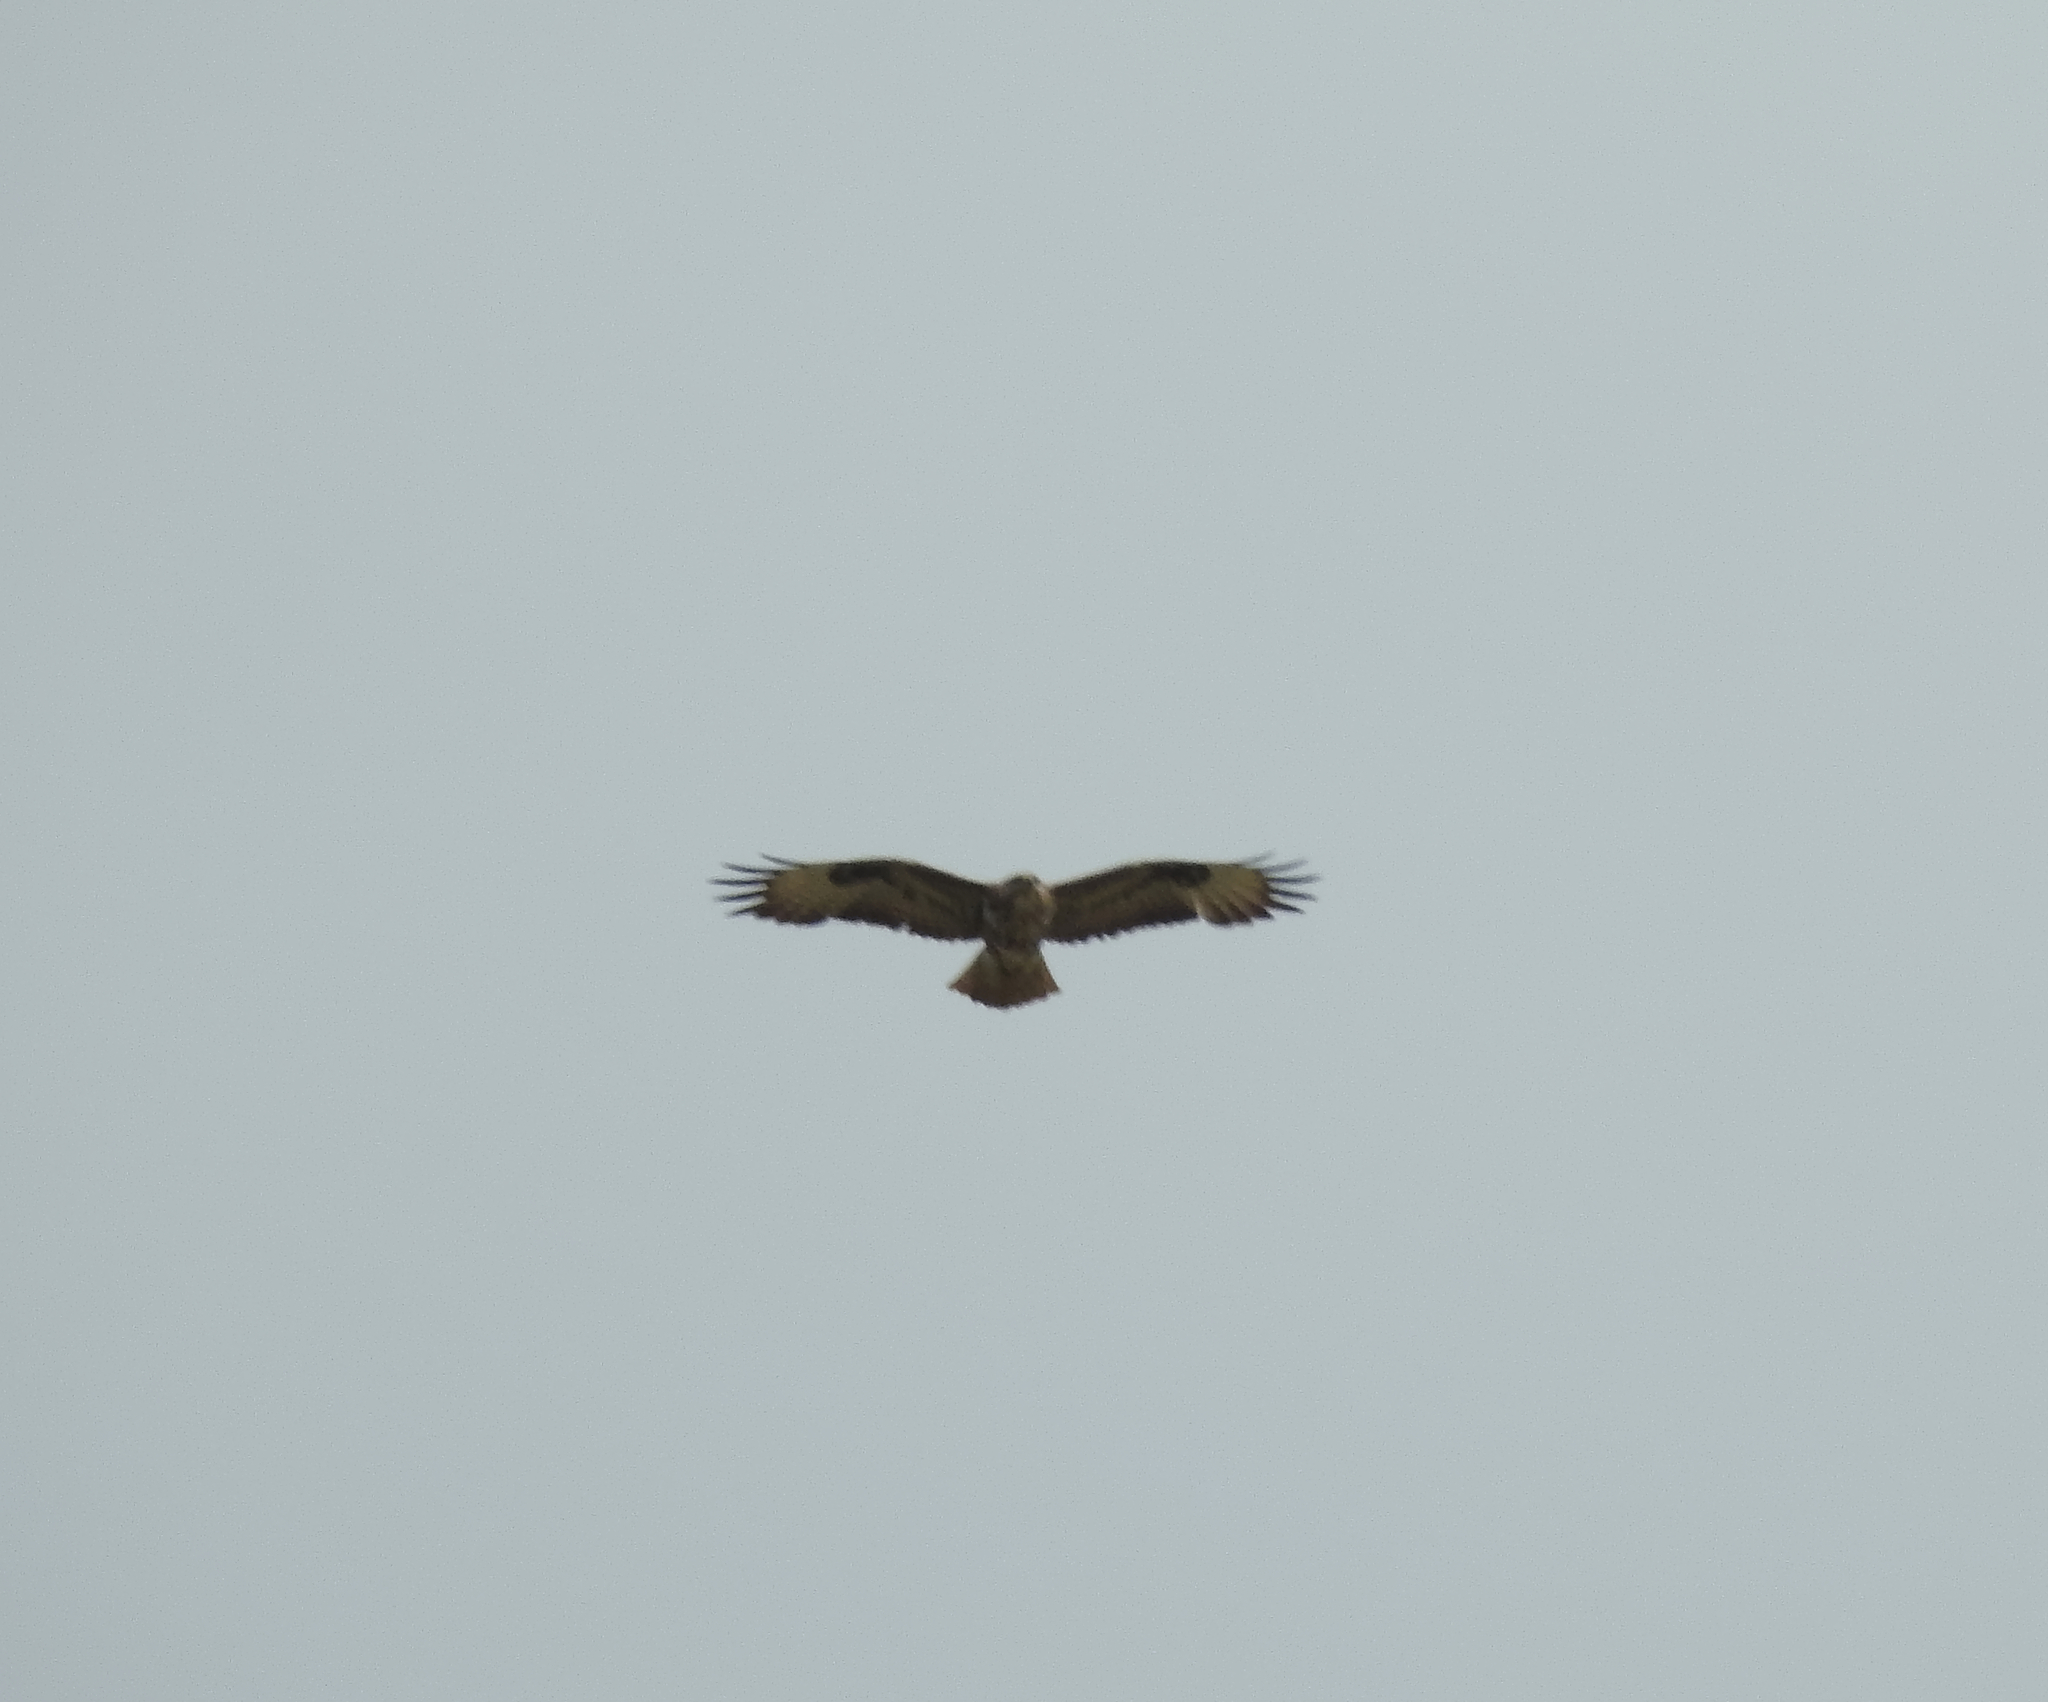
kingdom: Animalia
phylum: Chordata
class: Aves
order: Accipitriformes
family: Accipitridae
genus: Buteo
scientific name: Buteo buteo
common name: Common buzzard
